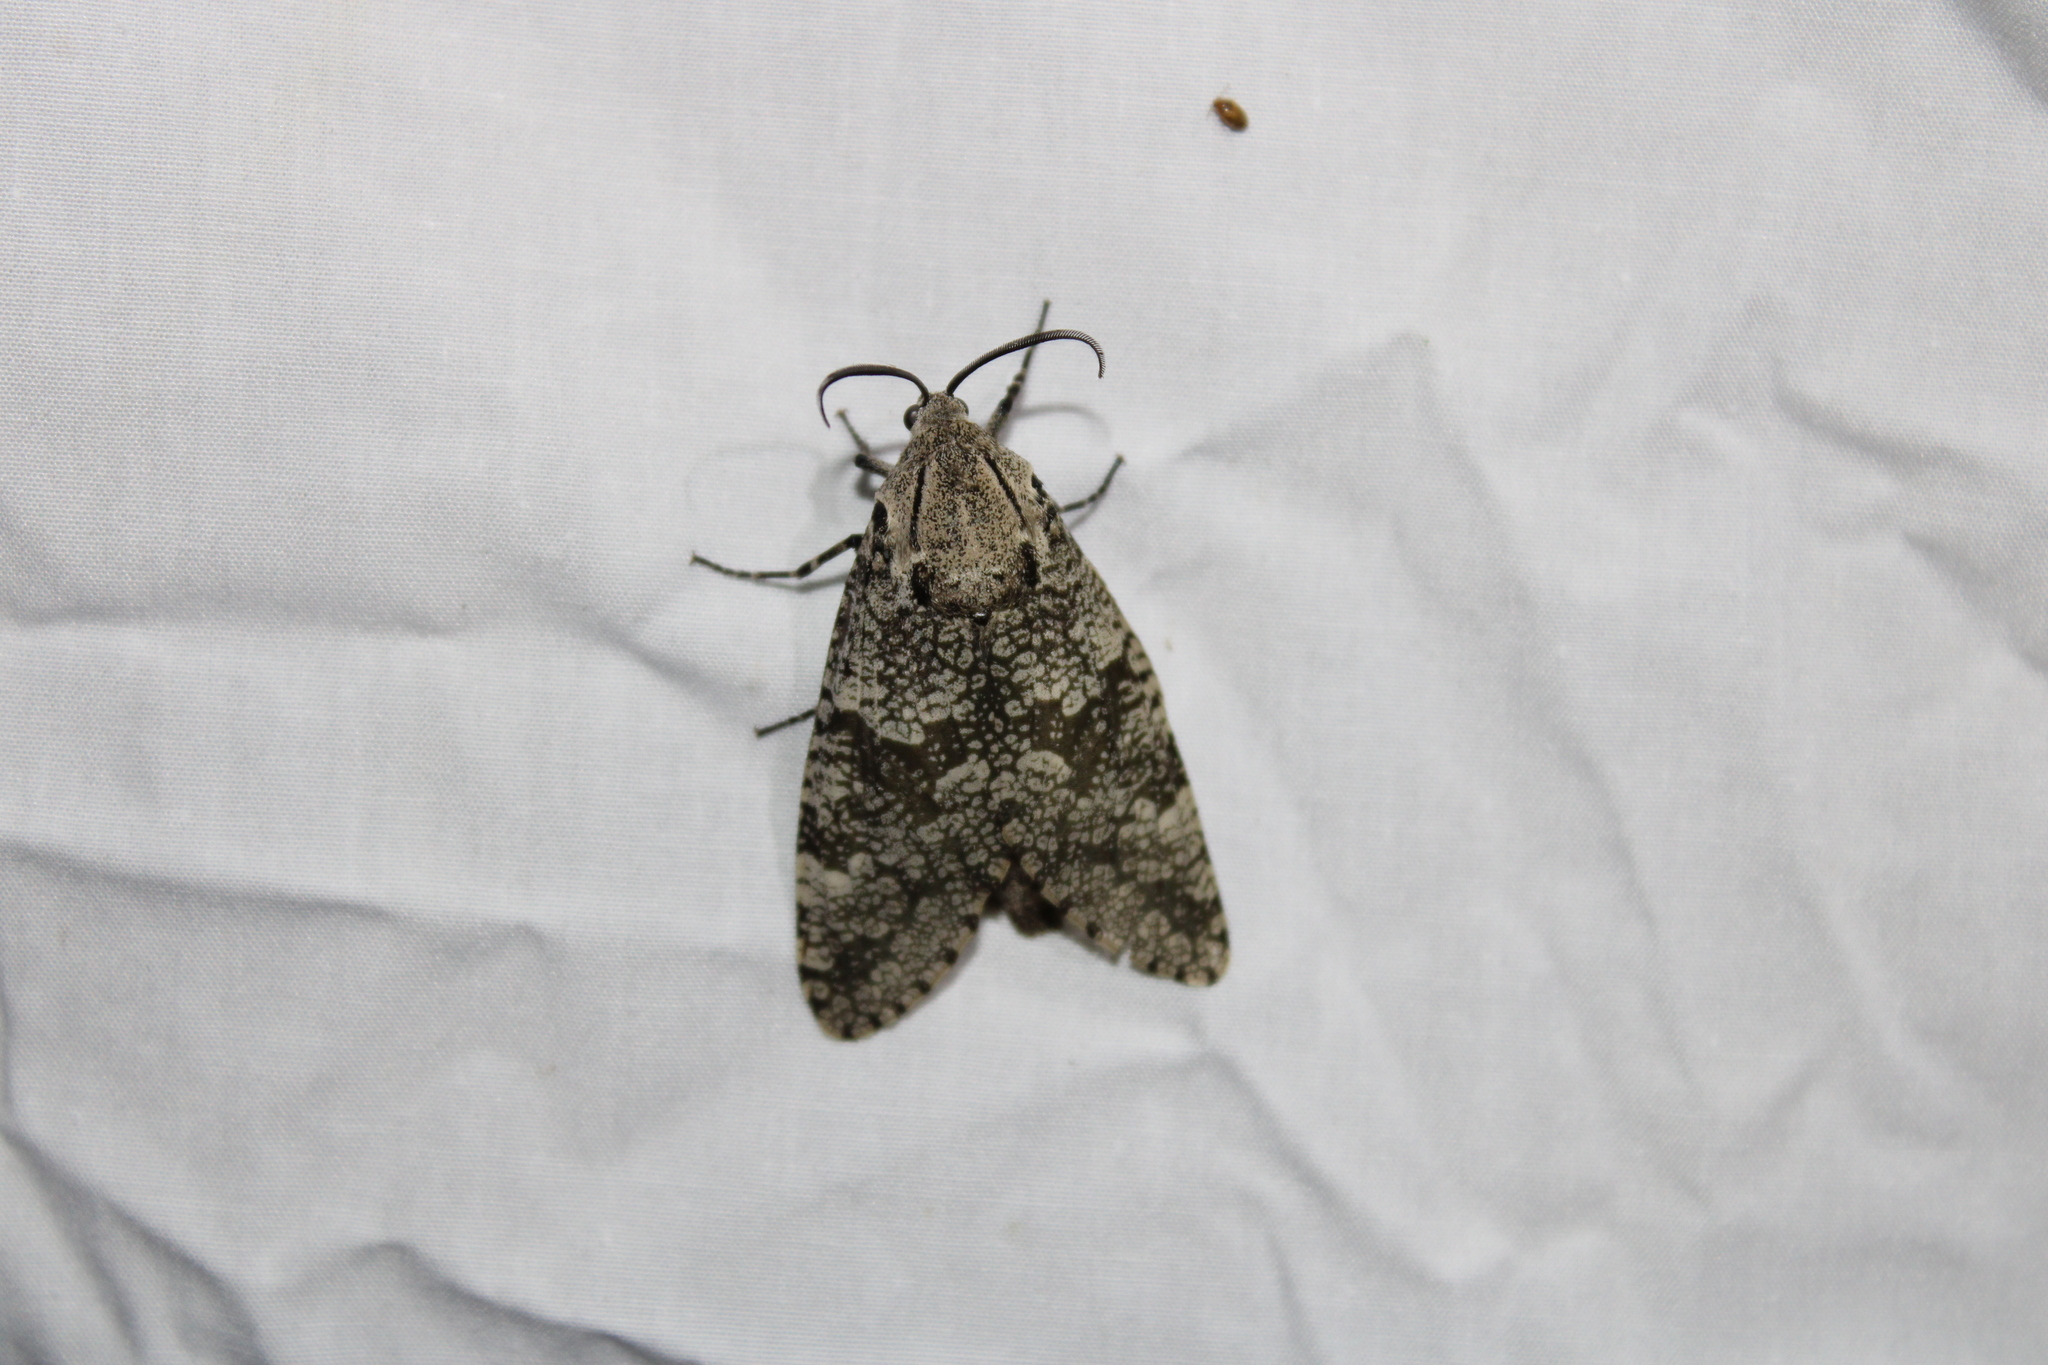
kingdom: Animalia
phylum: Arthropoda
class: Insecta
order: Lepidoptera
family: Cossidae
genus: Prionoxystus
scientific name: Prionoxystus robiniae
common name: Carpenterworm
